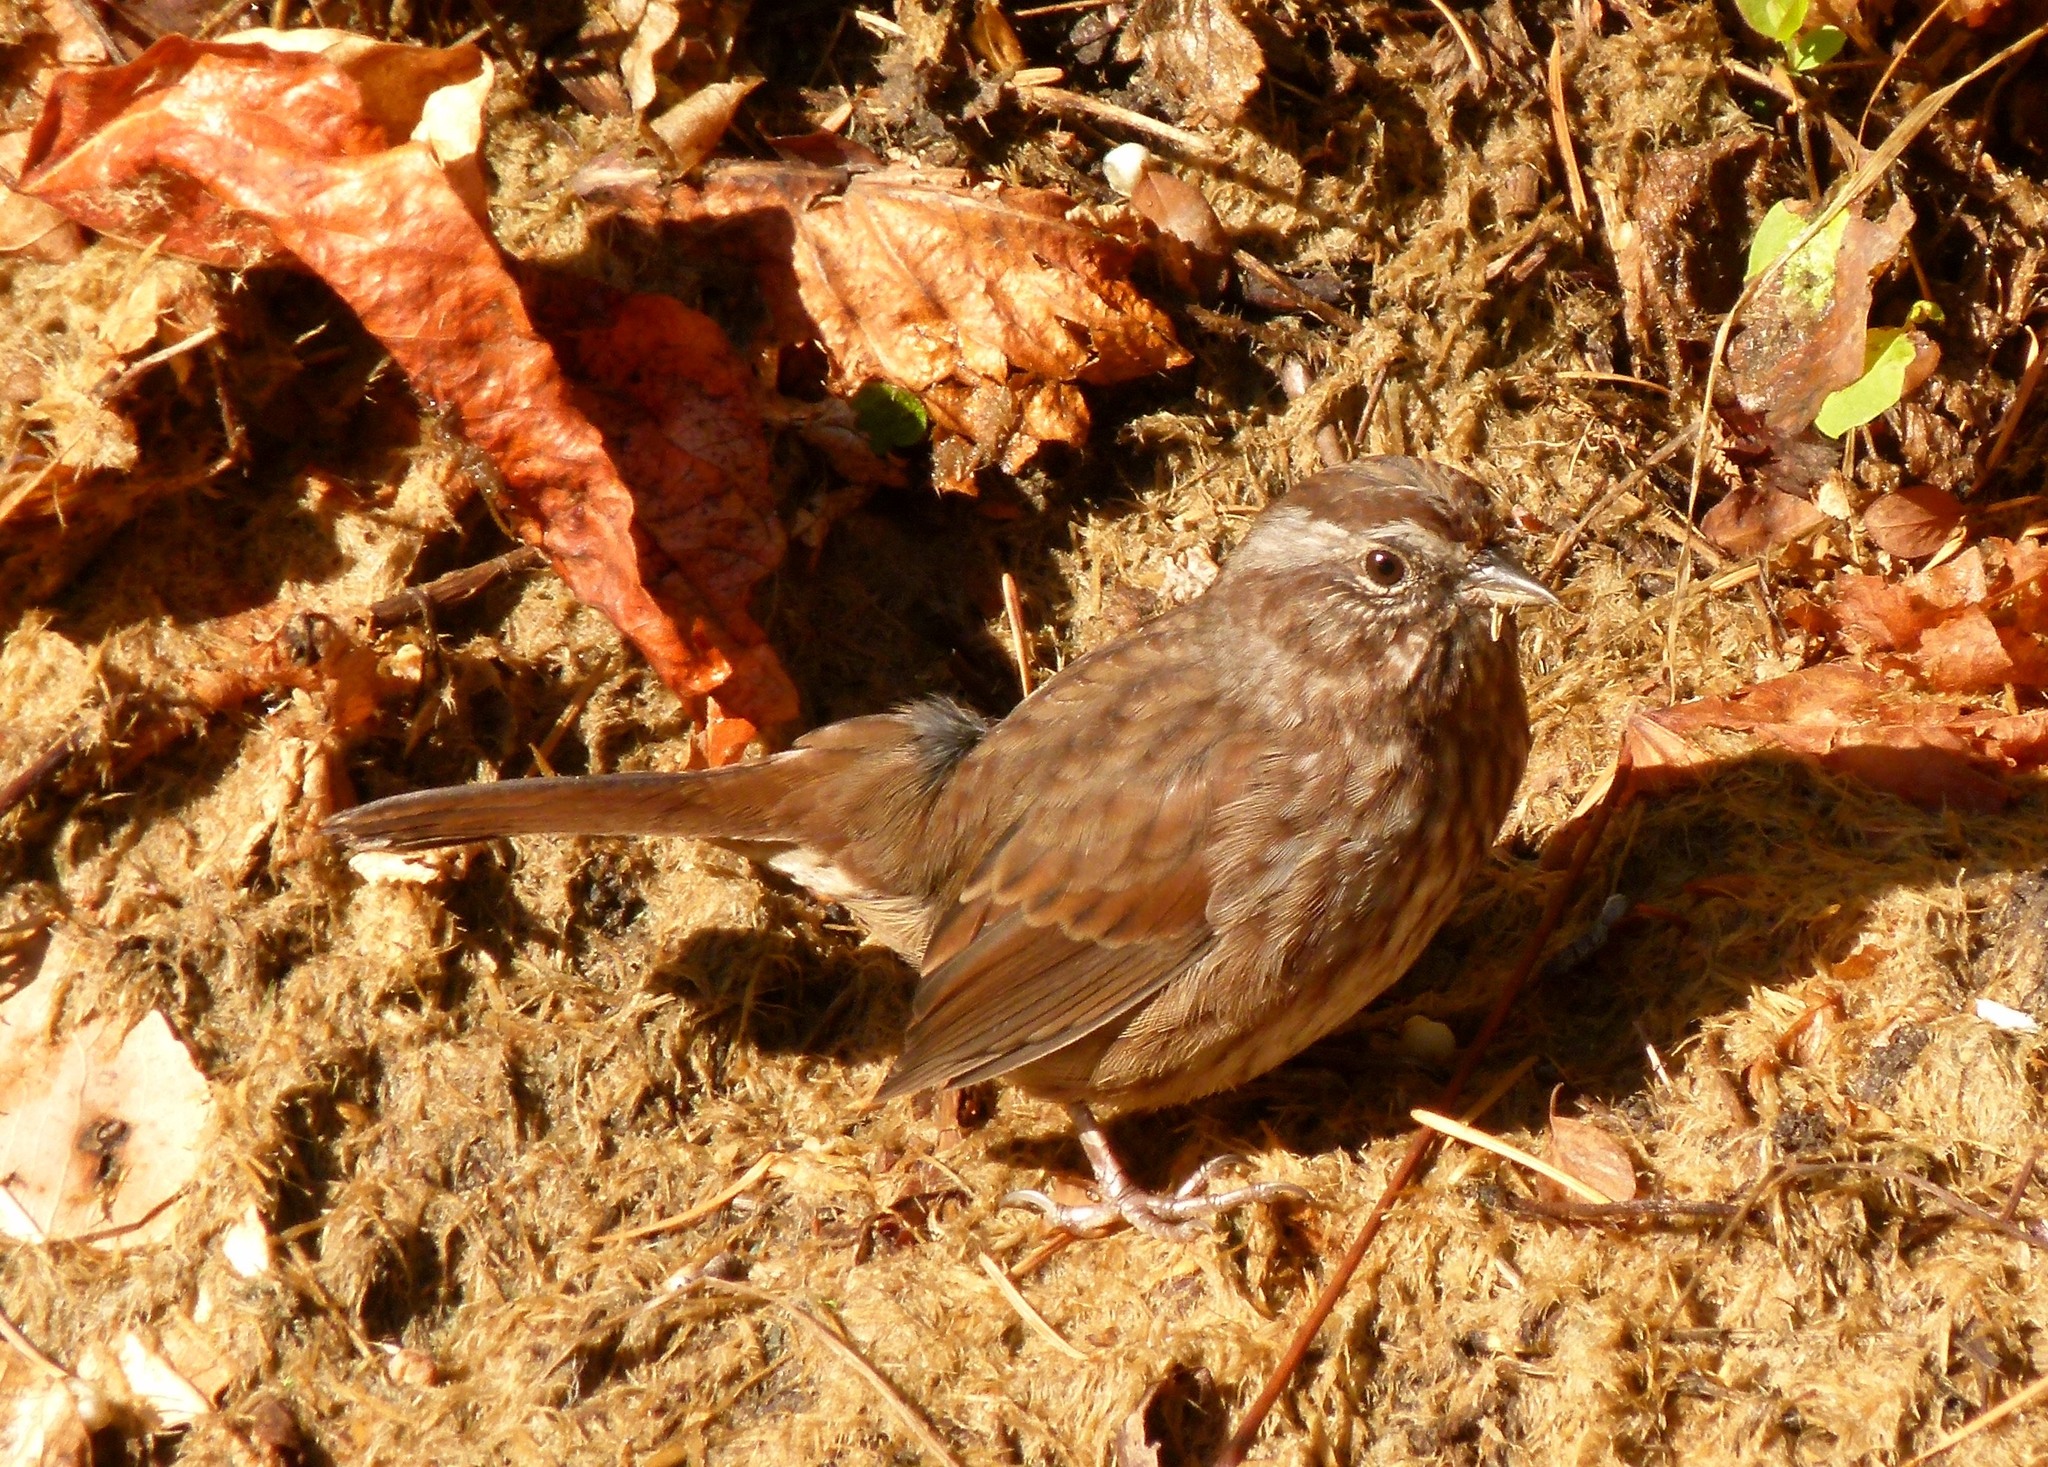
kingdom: Animalia
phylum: Chordata
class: Aves
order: Passeriformes
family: Passerellidae
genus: Melospiza
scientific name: Melospiza melodia
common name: Song sparrow
